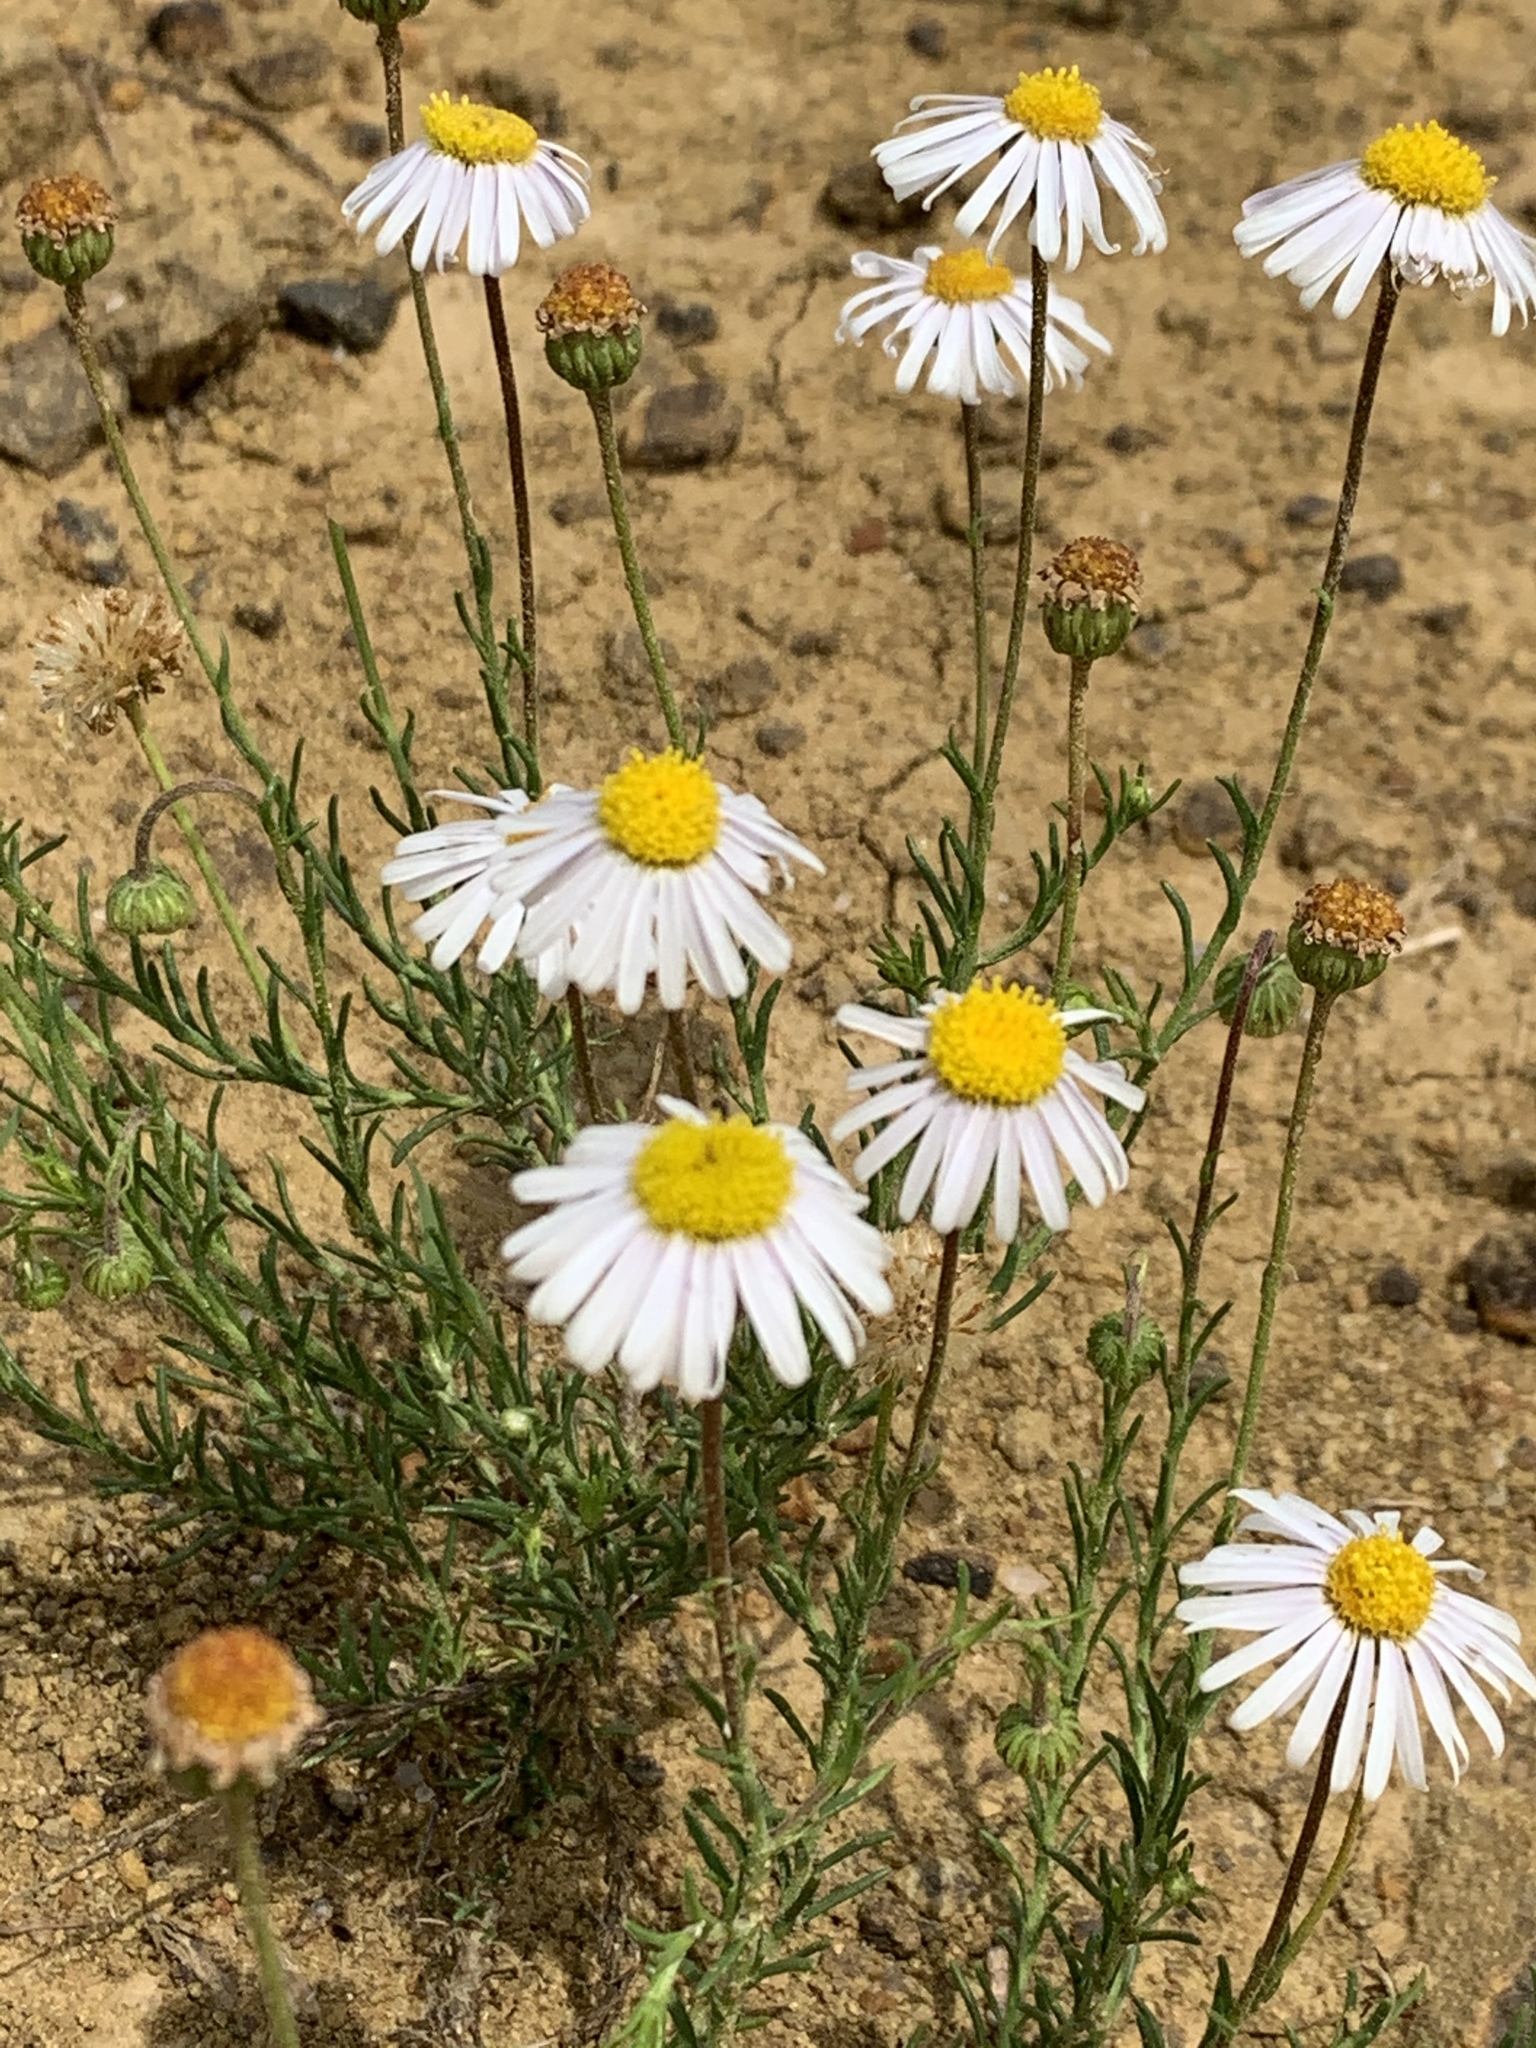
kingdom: Plantae
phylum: Tracheophyta
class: Magnoliopsida
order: Asterales
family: Asteraceae
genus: Felicia
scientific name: Felicia muricata
